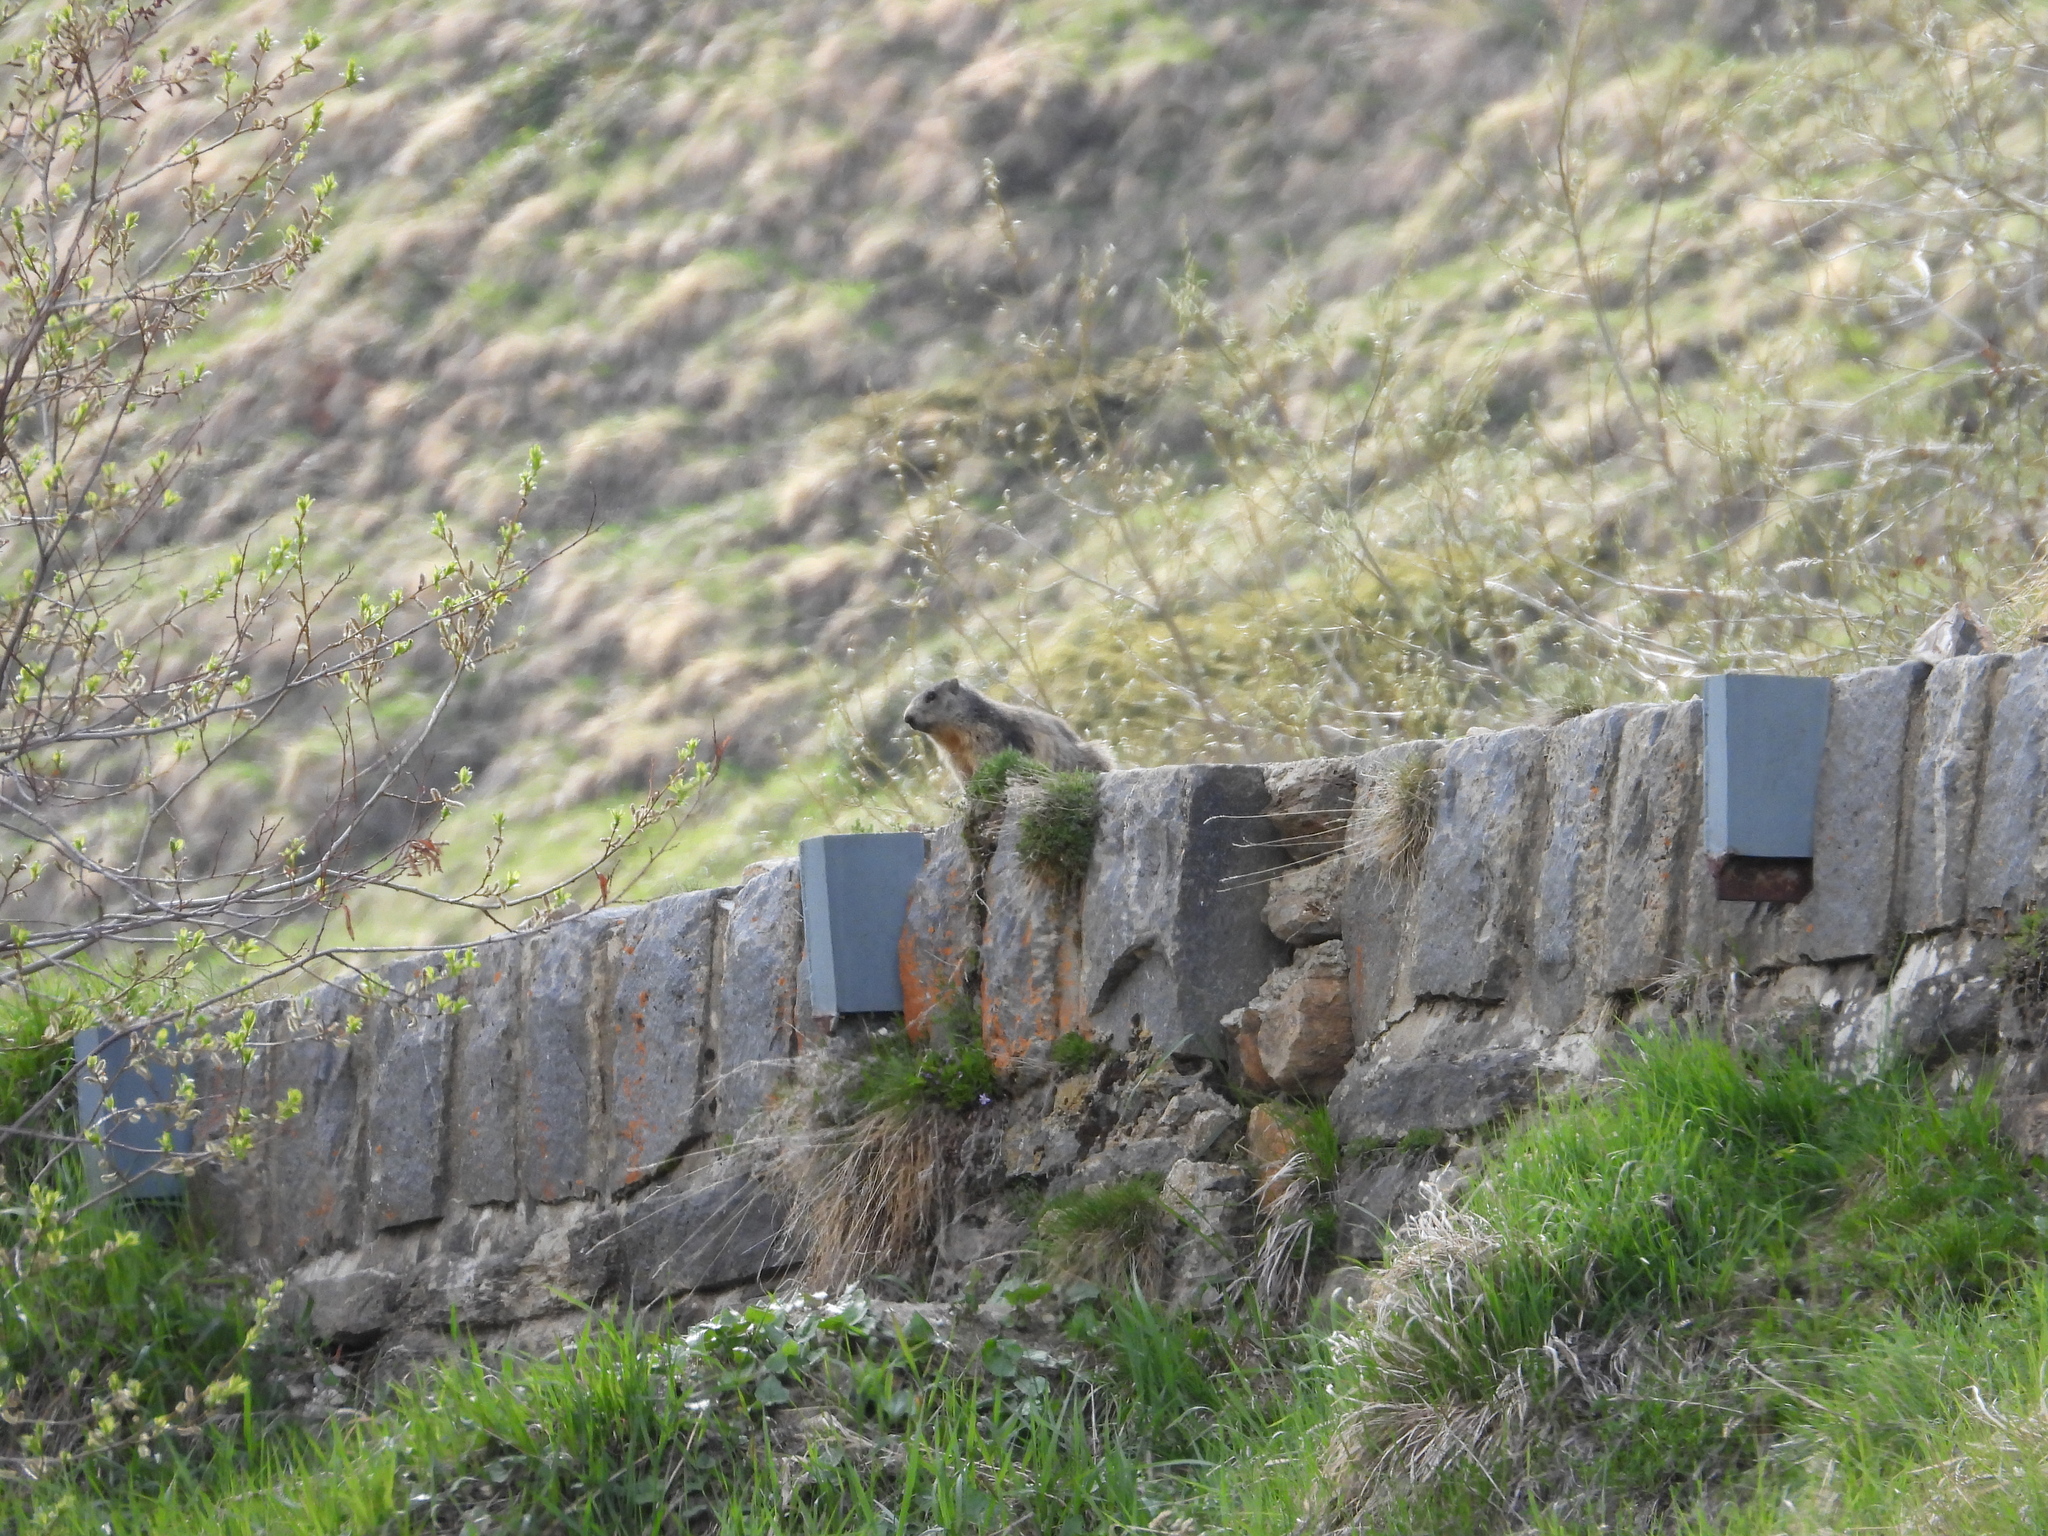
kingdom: Animalia
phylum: Chordata
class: Mammalia
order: Rodentia
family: Sciuridae
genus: Marmota
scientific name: Marmota marmota
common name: Alpine marmot
